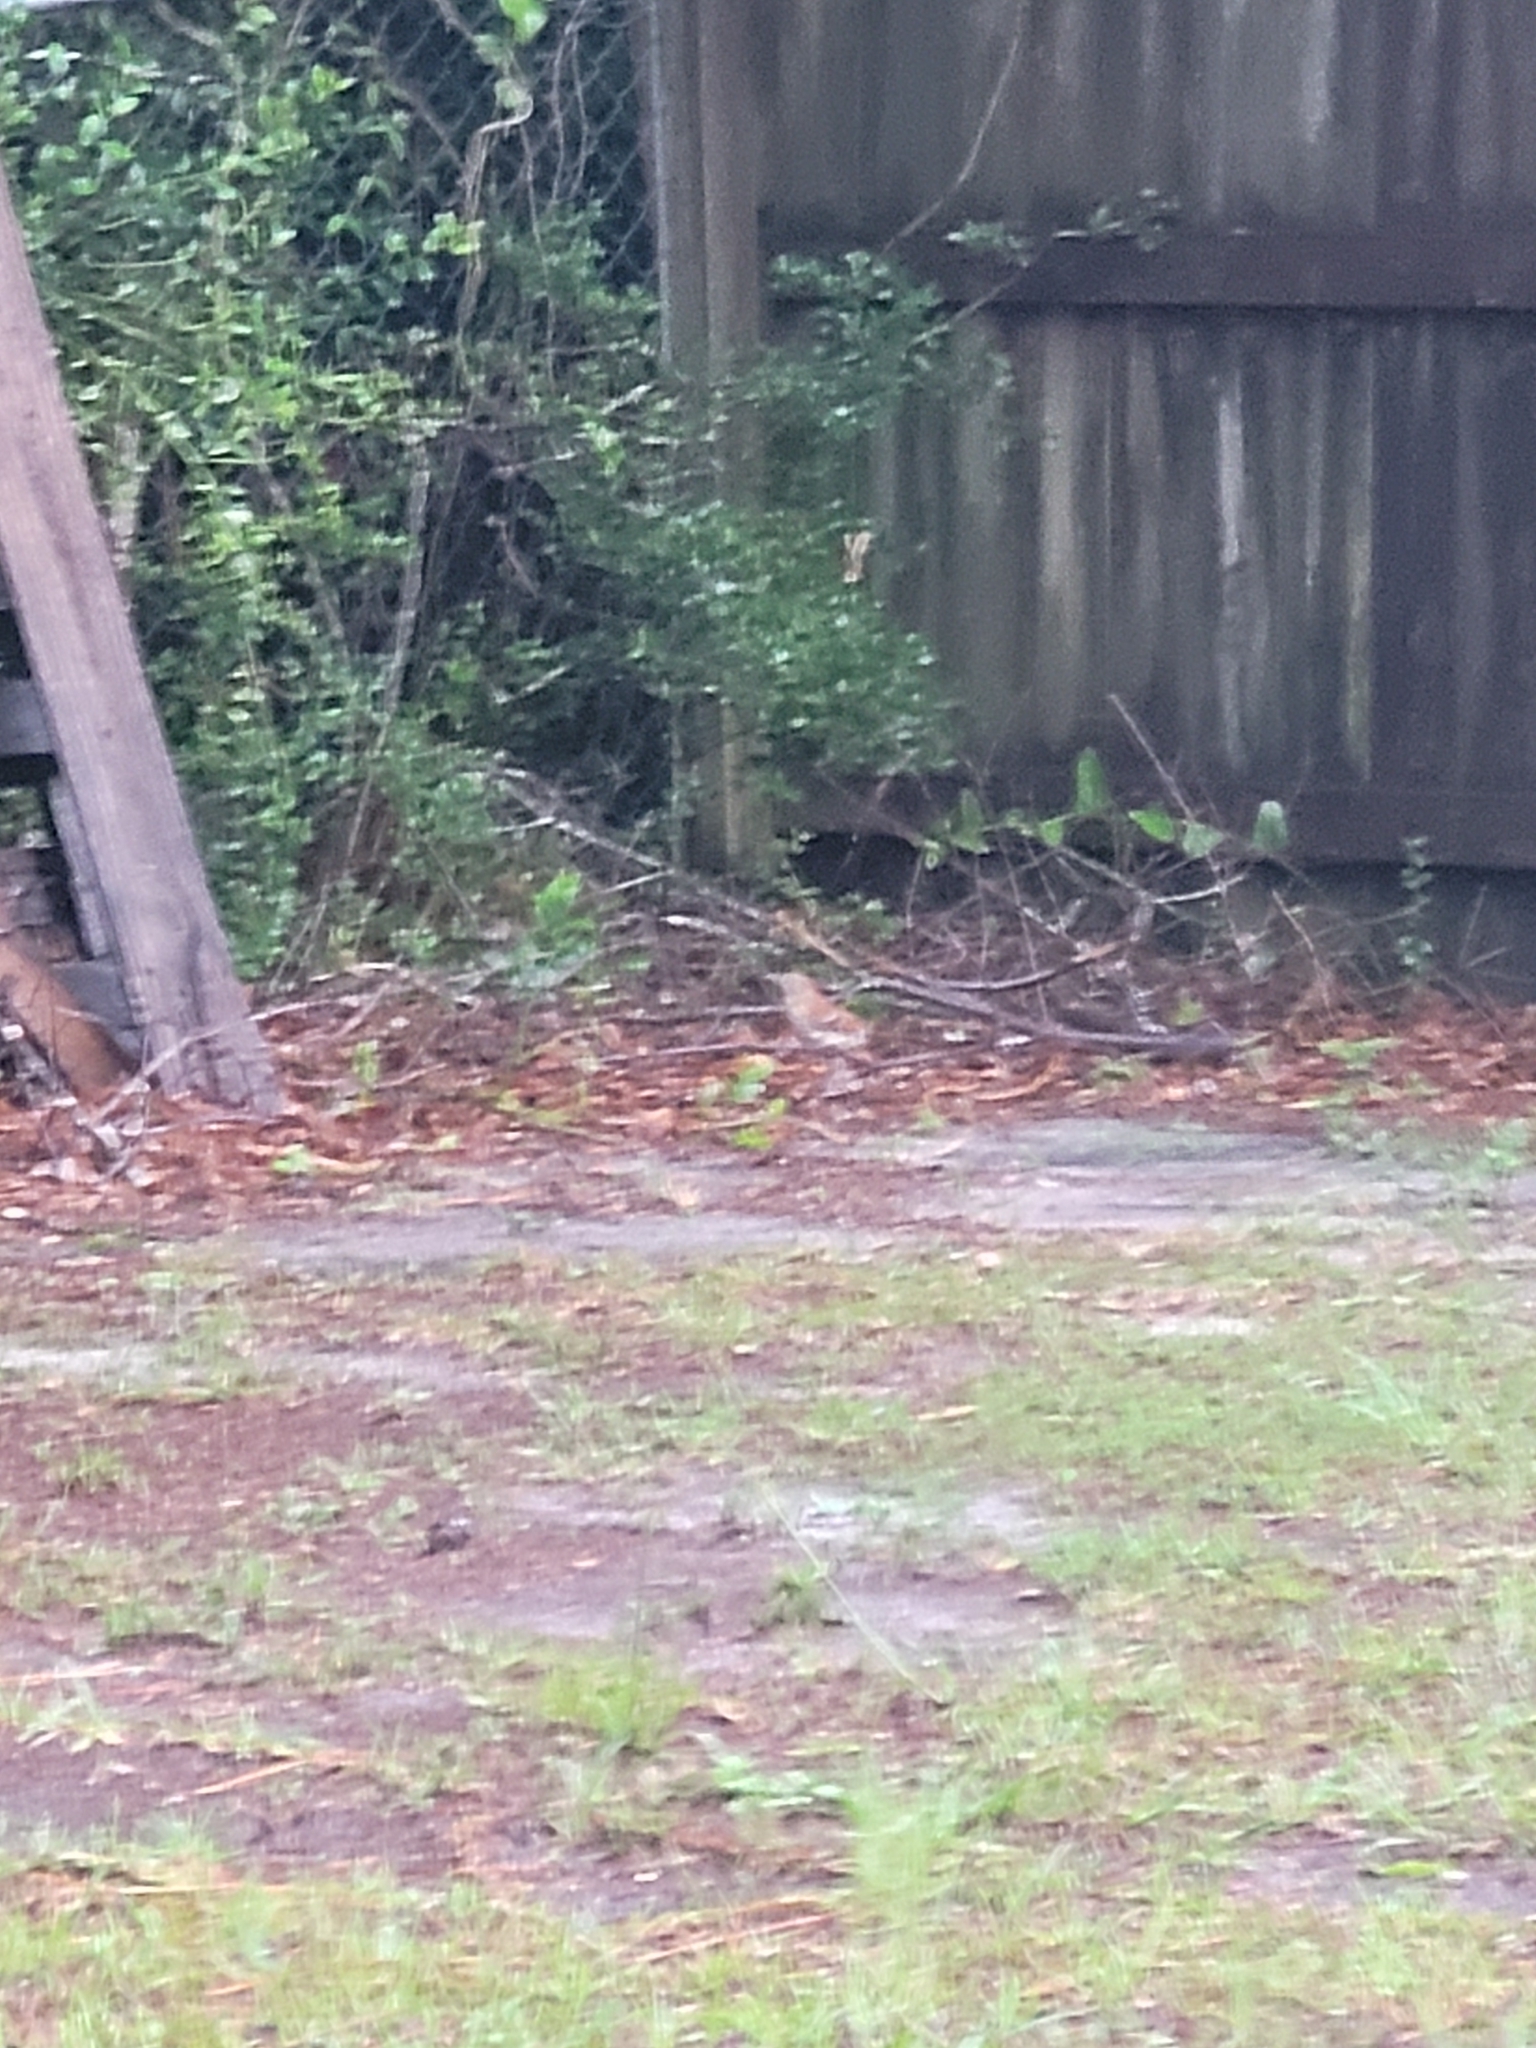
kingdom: Animalia
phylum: Chordata
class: Aves
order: Passeriformes
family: Mimidae
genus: Toxostoma
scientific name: Toxostoma rufum
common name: Brown thrasher
